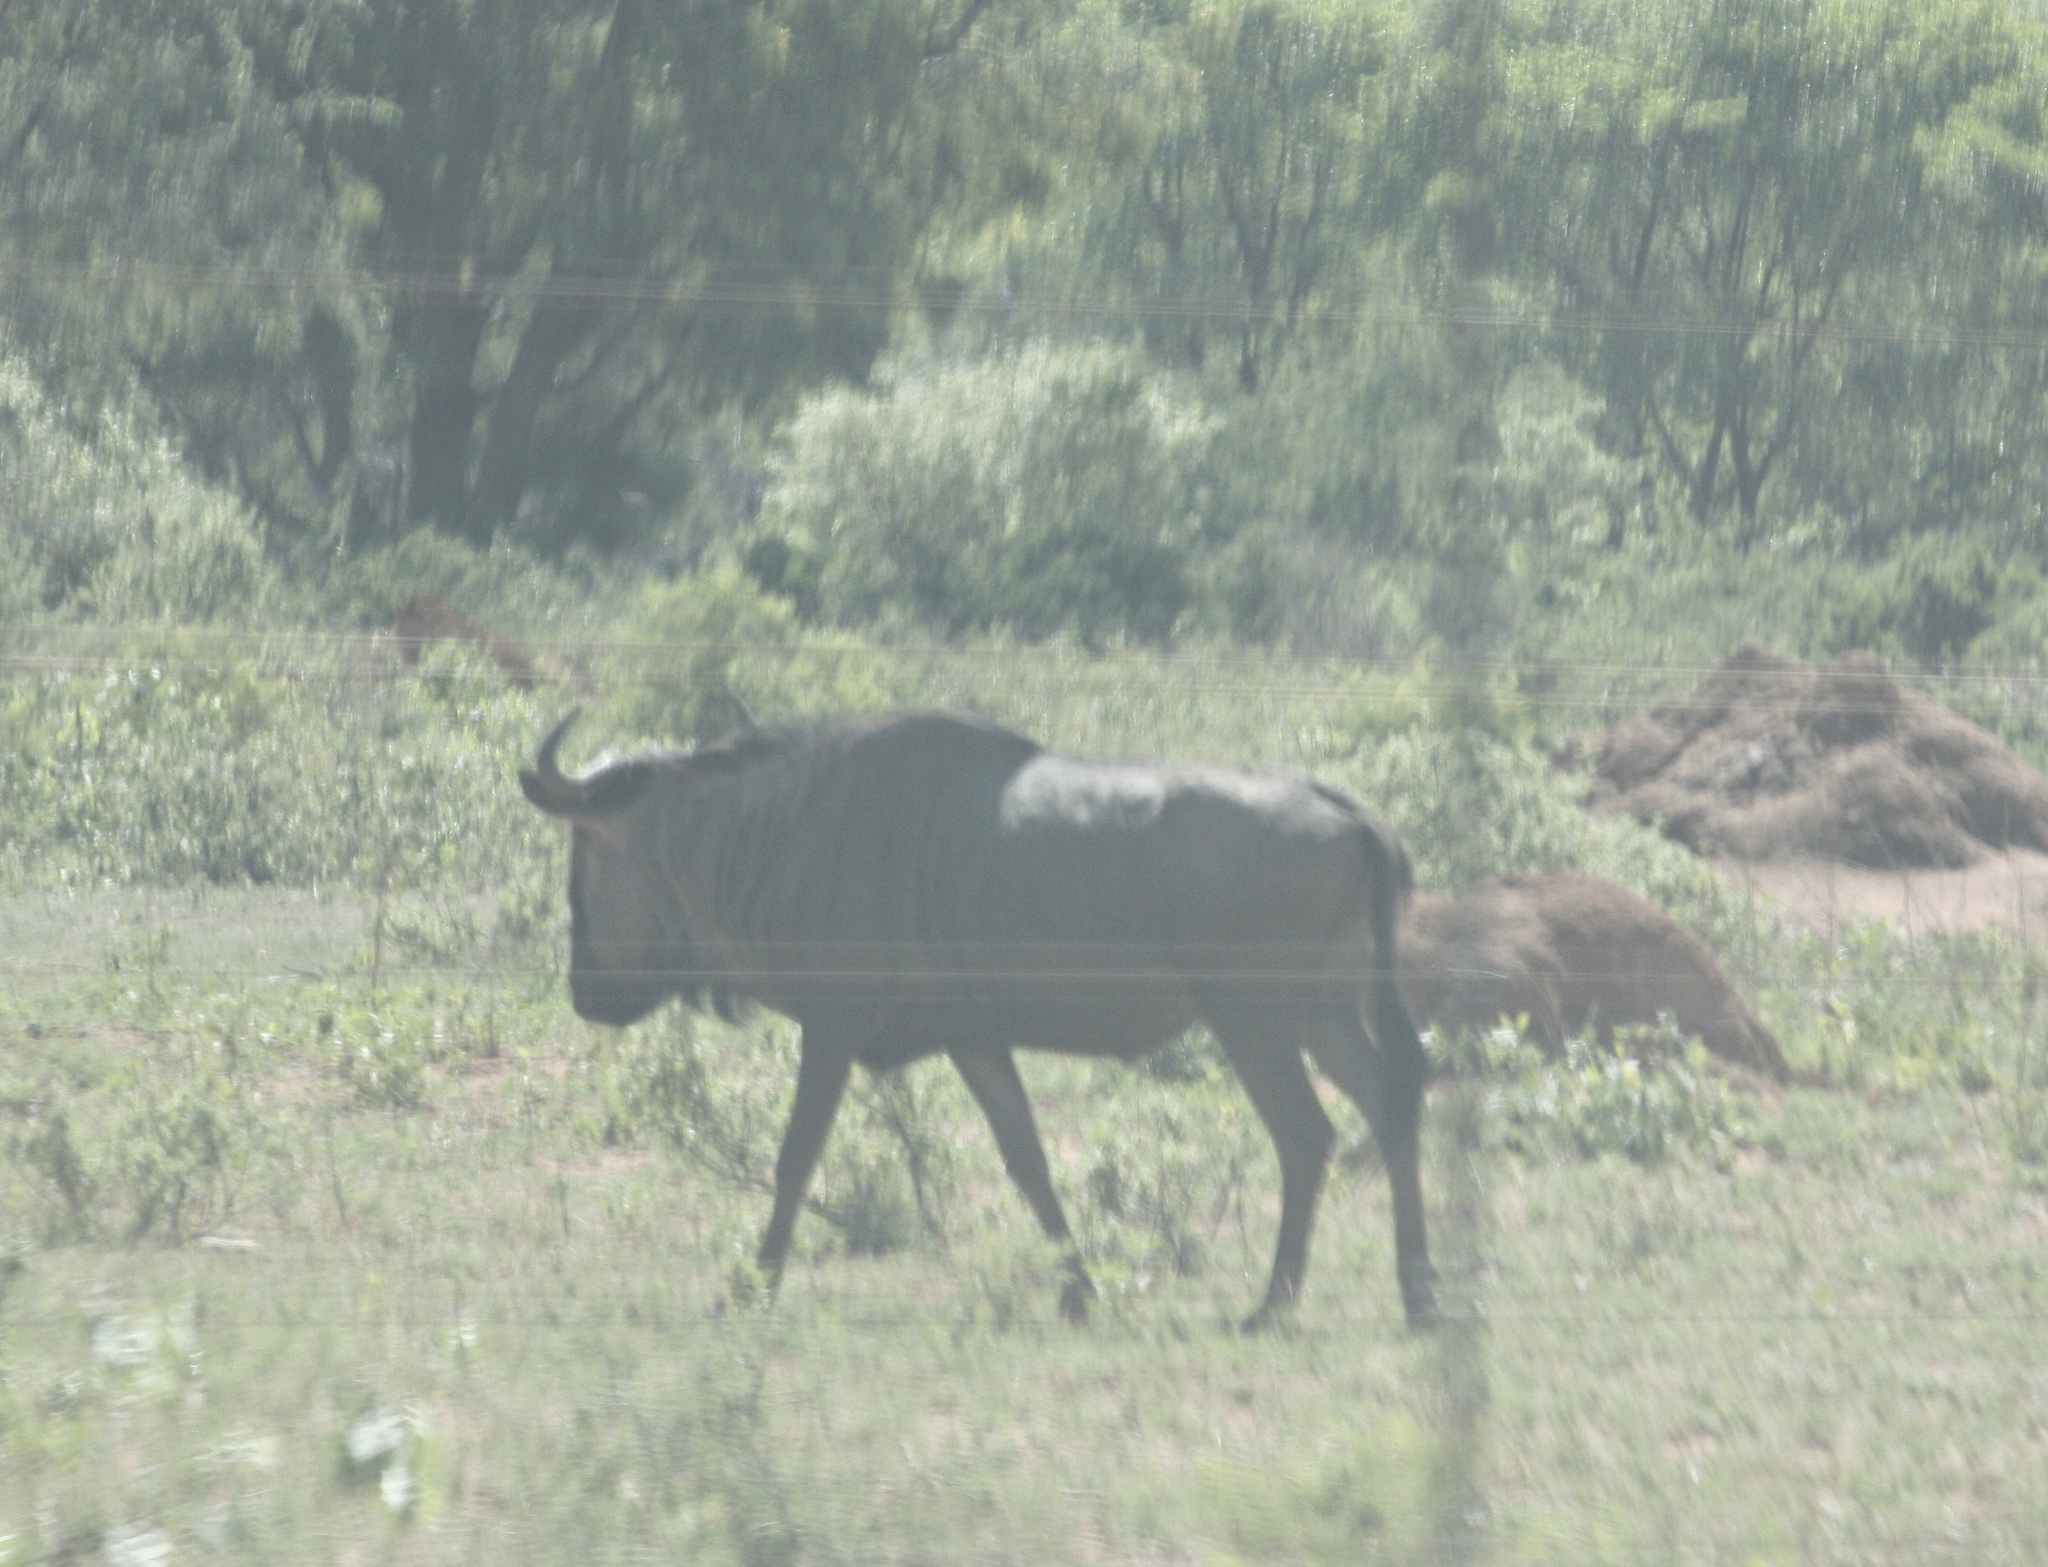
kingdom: Animalia
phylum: Chordata
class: Mammalia
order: Artiodactyla
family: Bovidae
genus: Connochaetes
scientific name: Connochaetes taurinus
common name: Blue wildebeest
